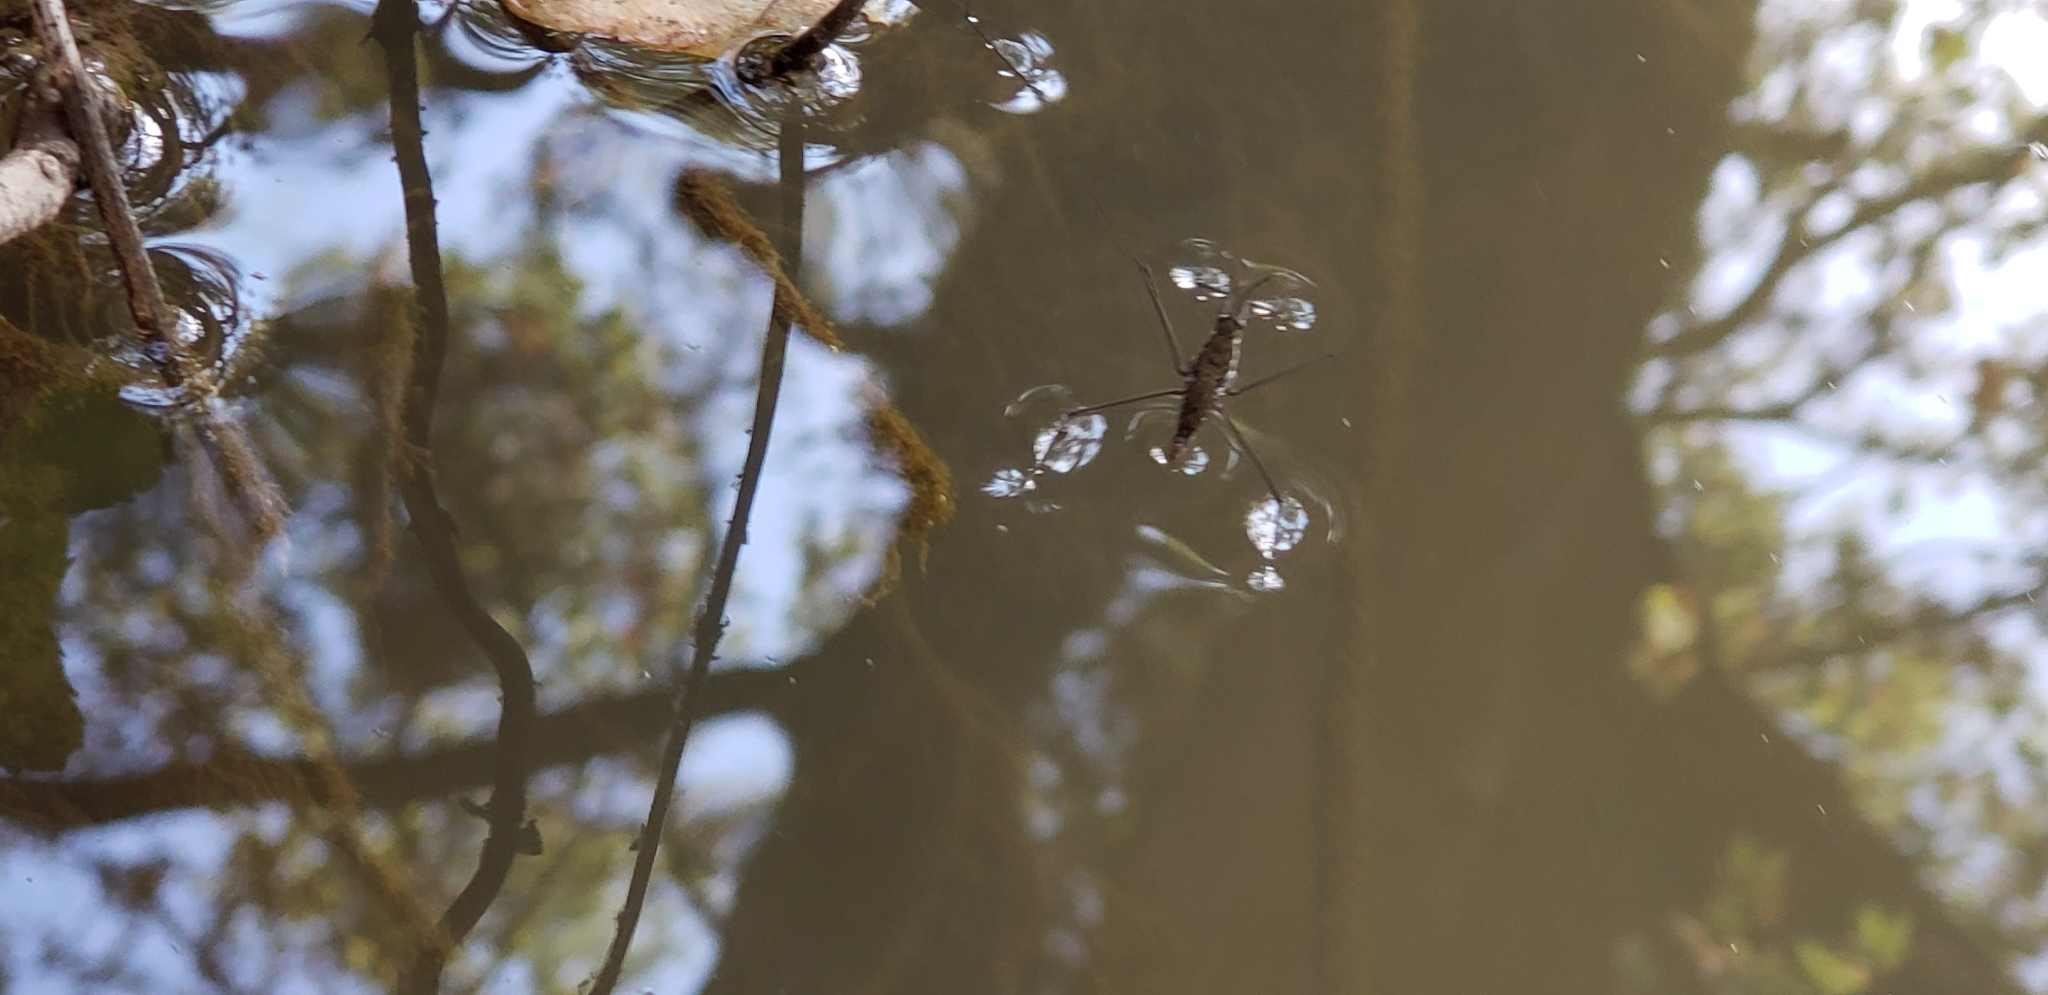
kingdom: Animalia
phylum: Arthropoda
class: Insecta
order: Hemiptera
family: Gerridae
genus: Aquarius
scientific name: Aquarius remigis
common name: Common water strider
